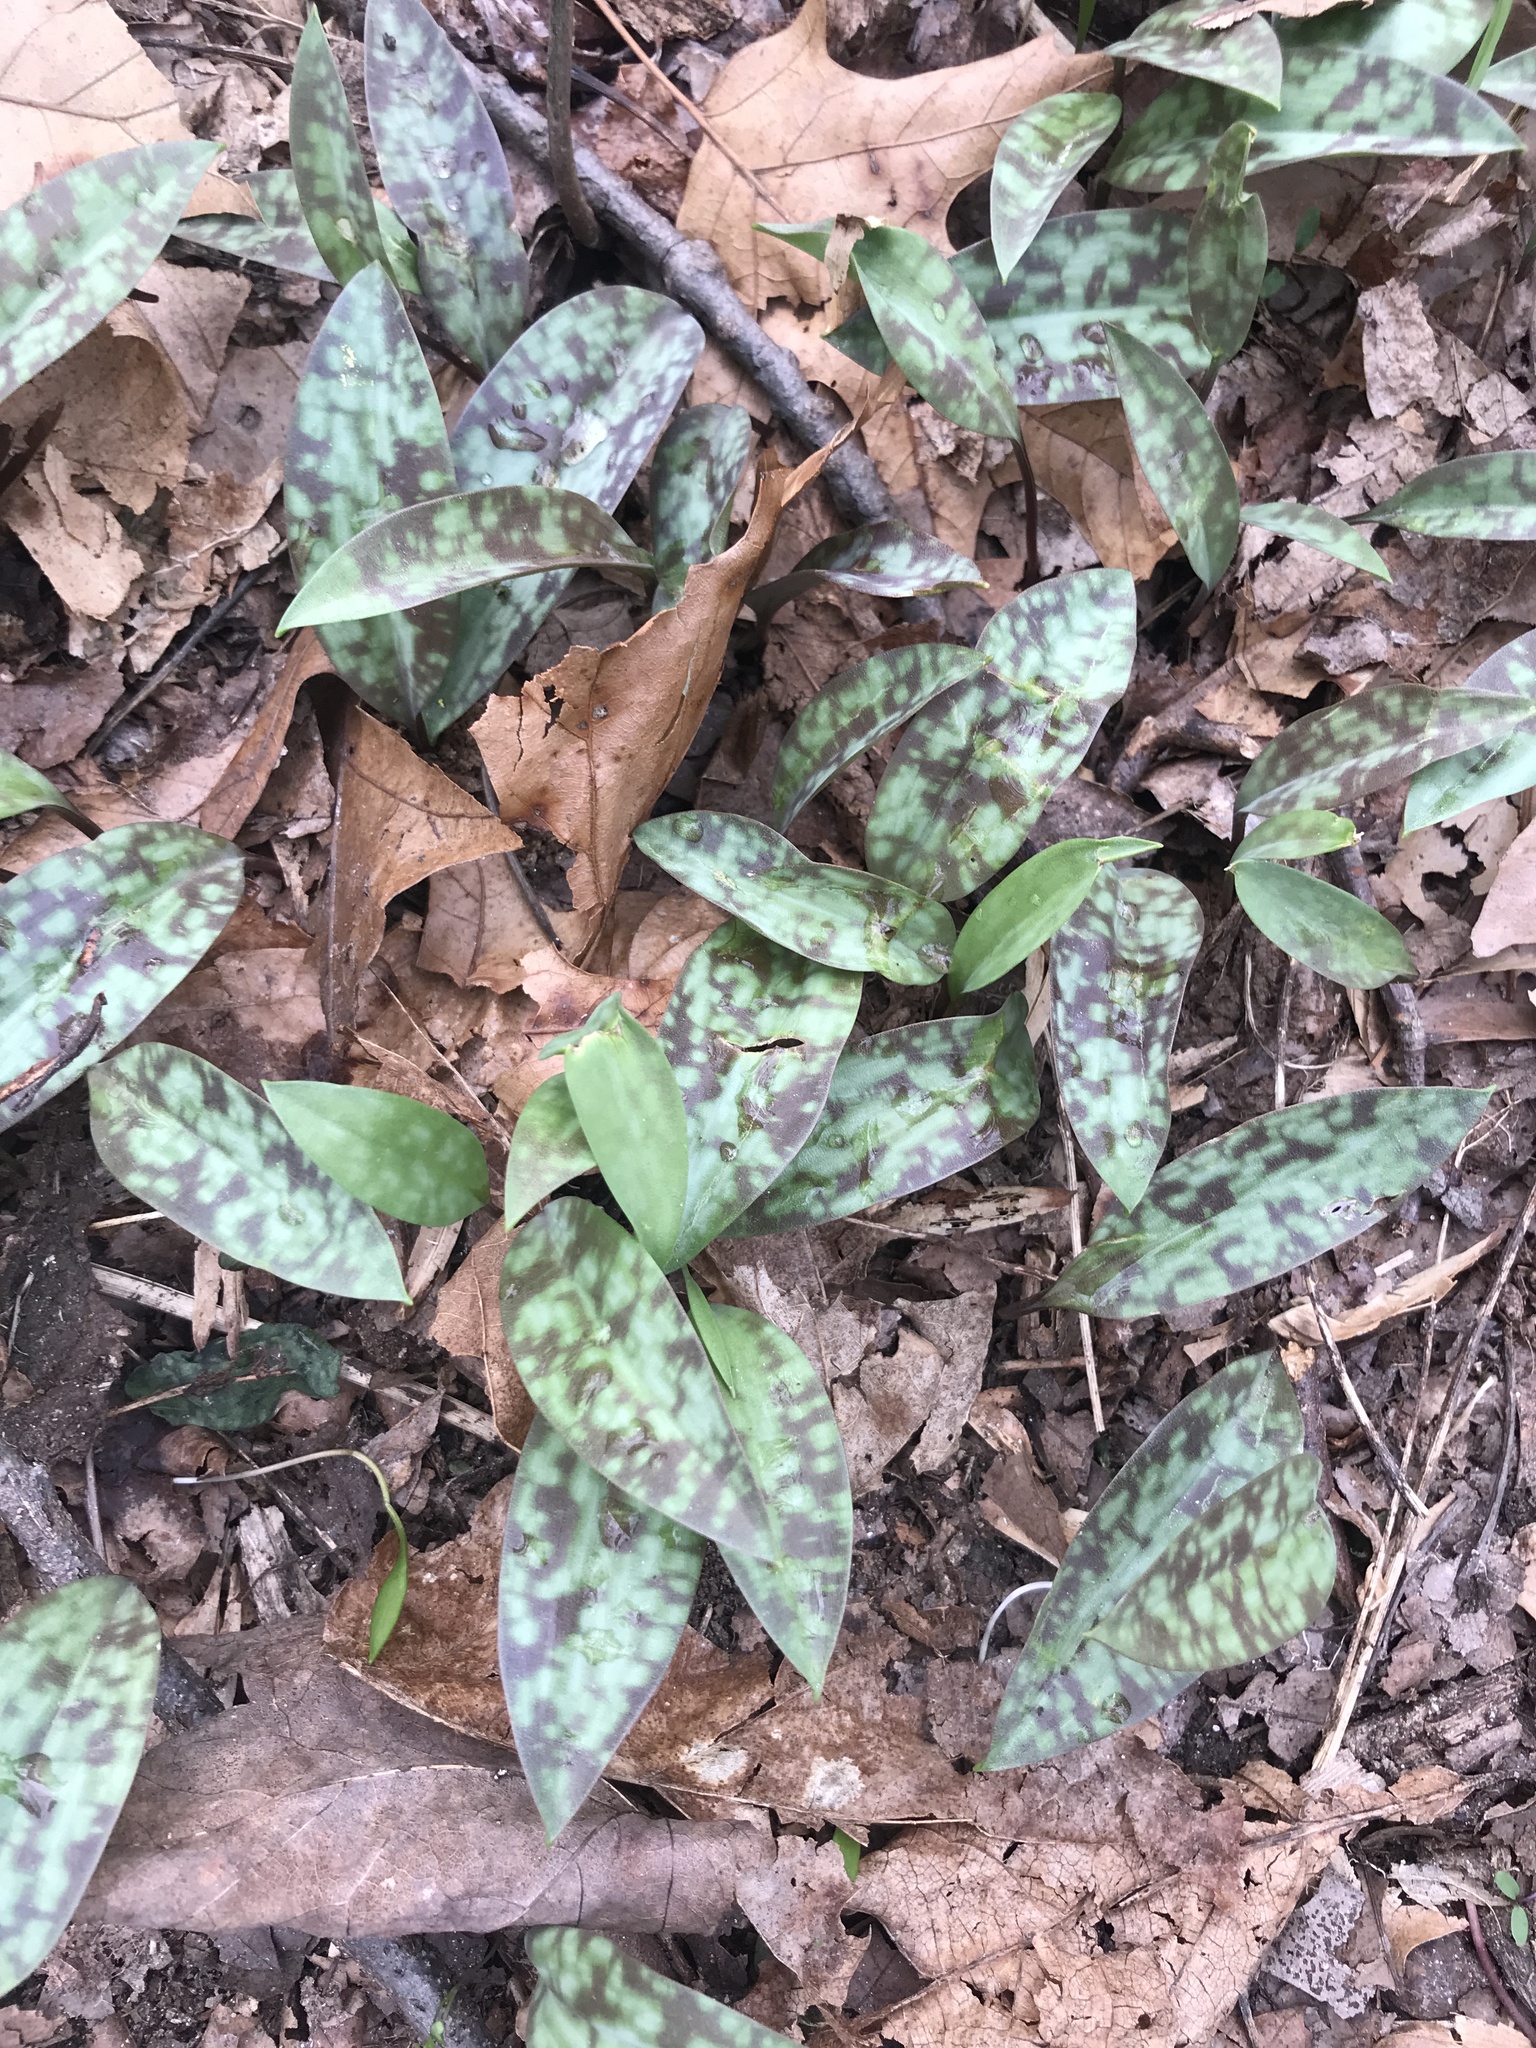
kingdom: Plantae
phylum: Tracheophyta
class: Liliopsida
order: Liliales
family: Liliaceae
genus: Erythronium
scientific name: Erythronium americanum
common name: Yellow adder's-tongue
